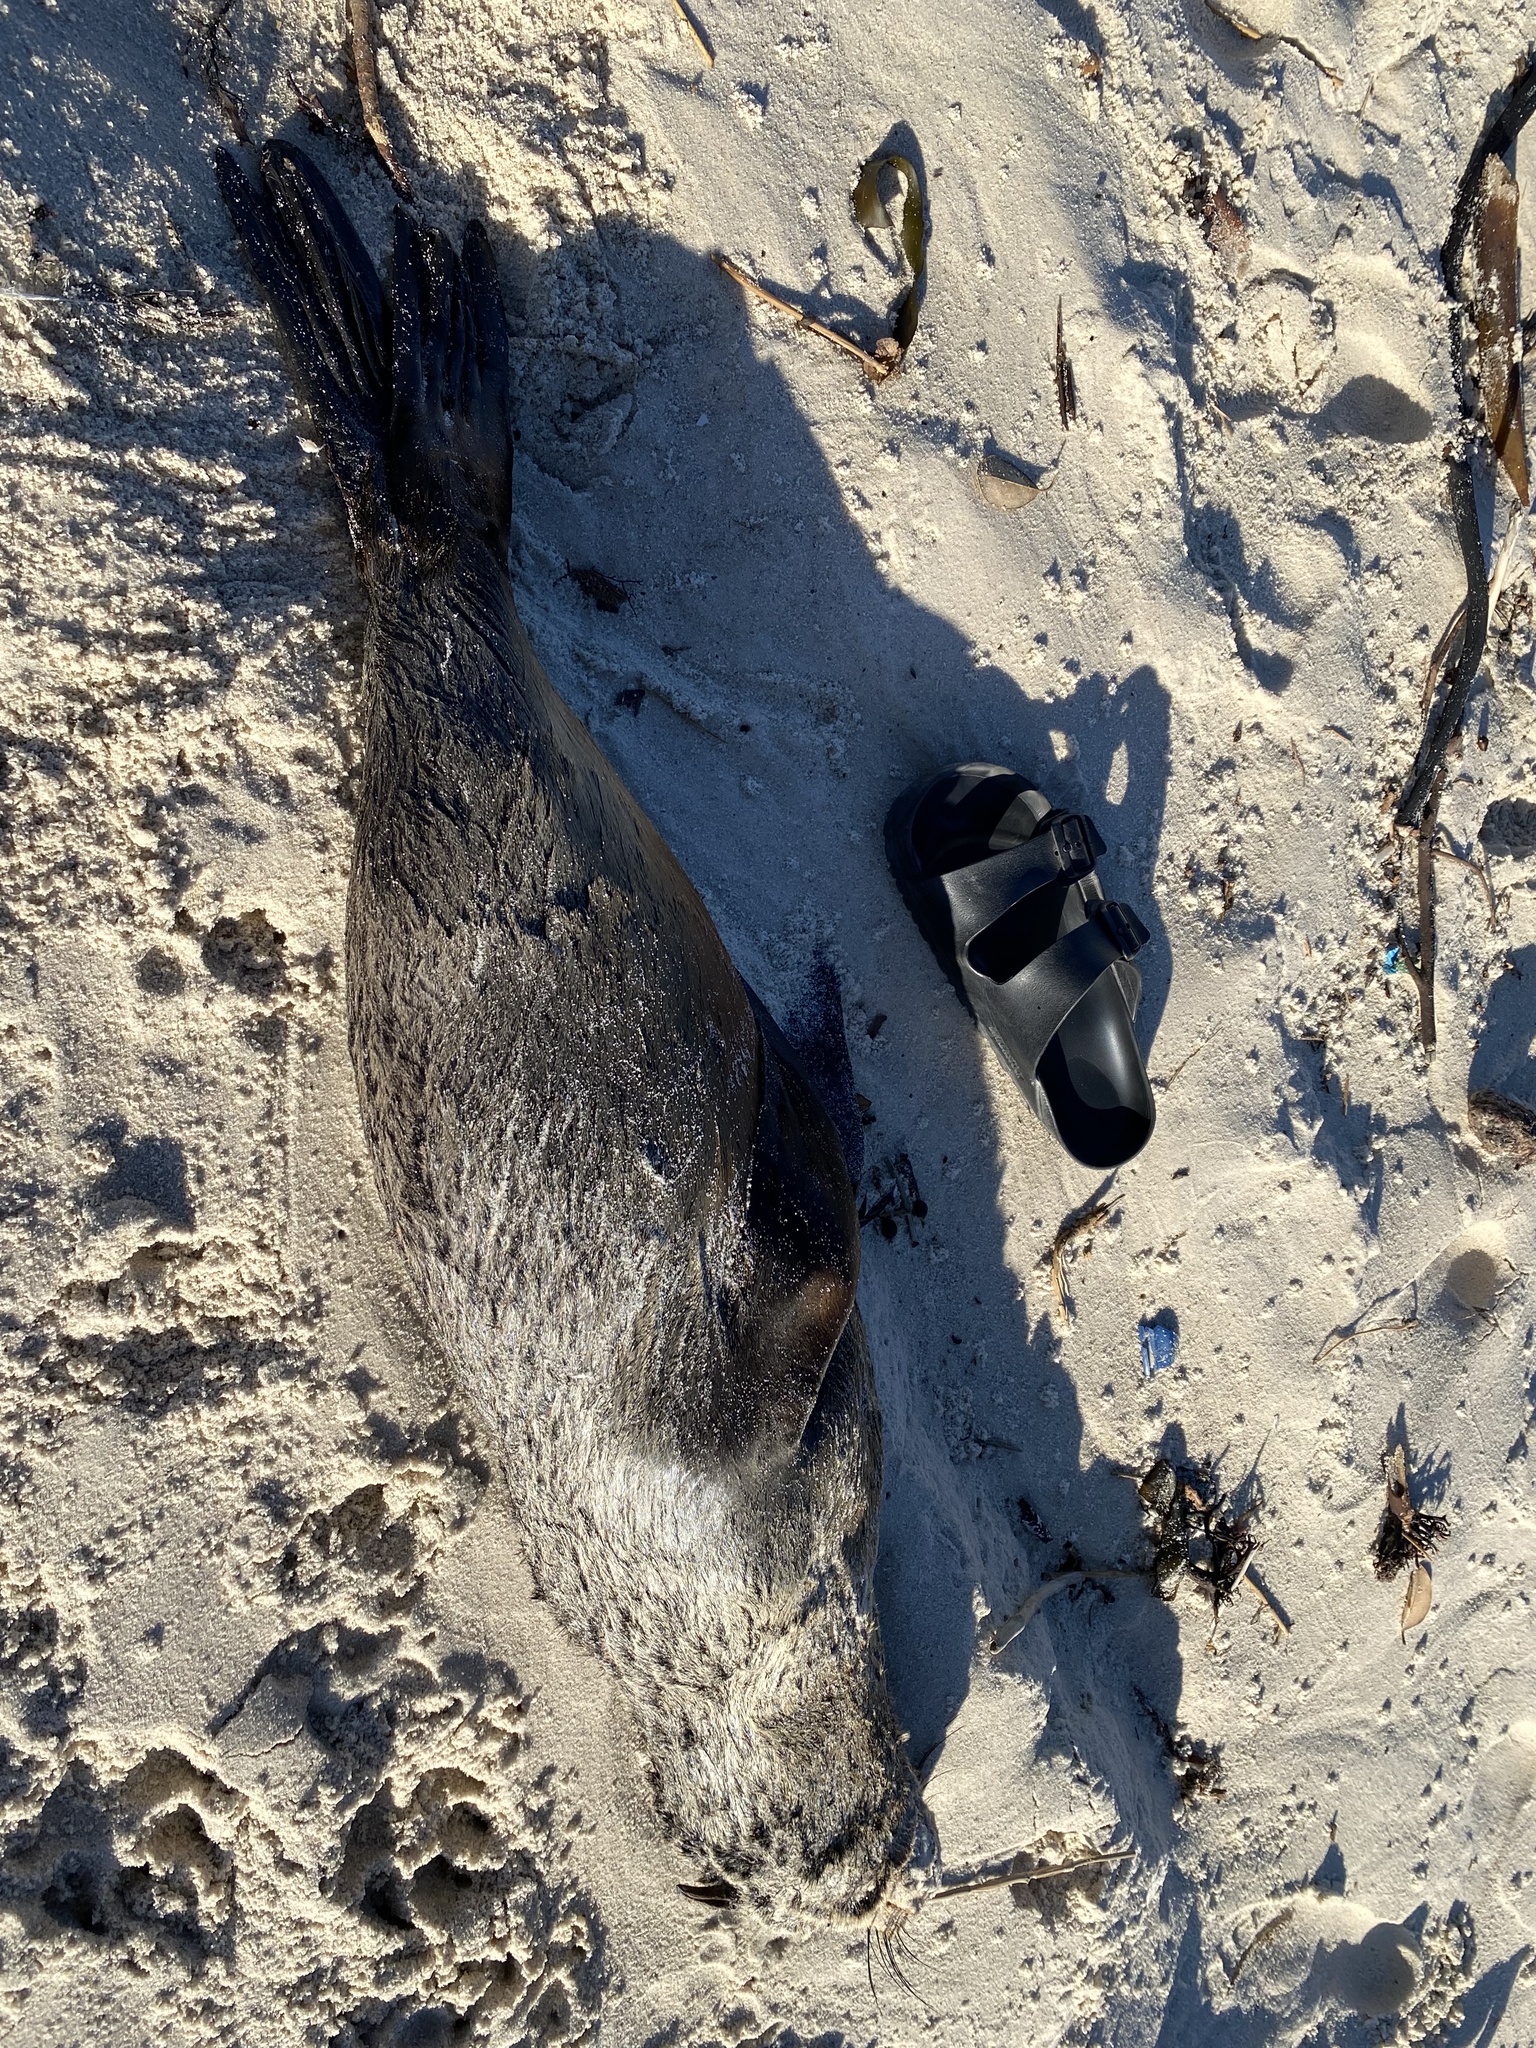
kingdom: Animalia
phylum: Chordata
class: Mammalia
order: Carnivora
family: Otariidae
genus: Arctocephalus
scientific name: Arctocephalus pusillus
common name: Brown fur seal
